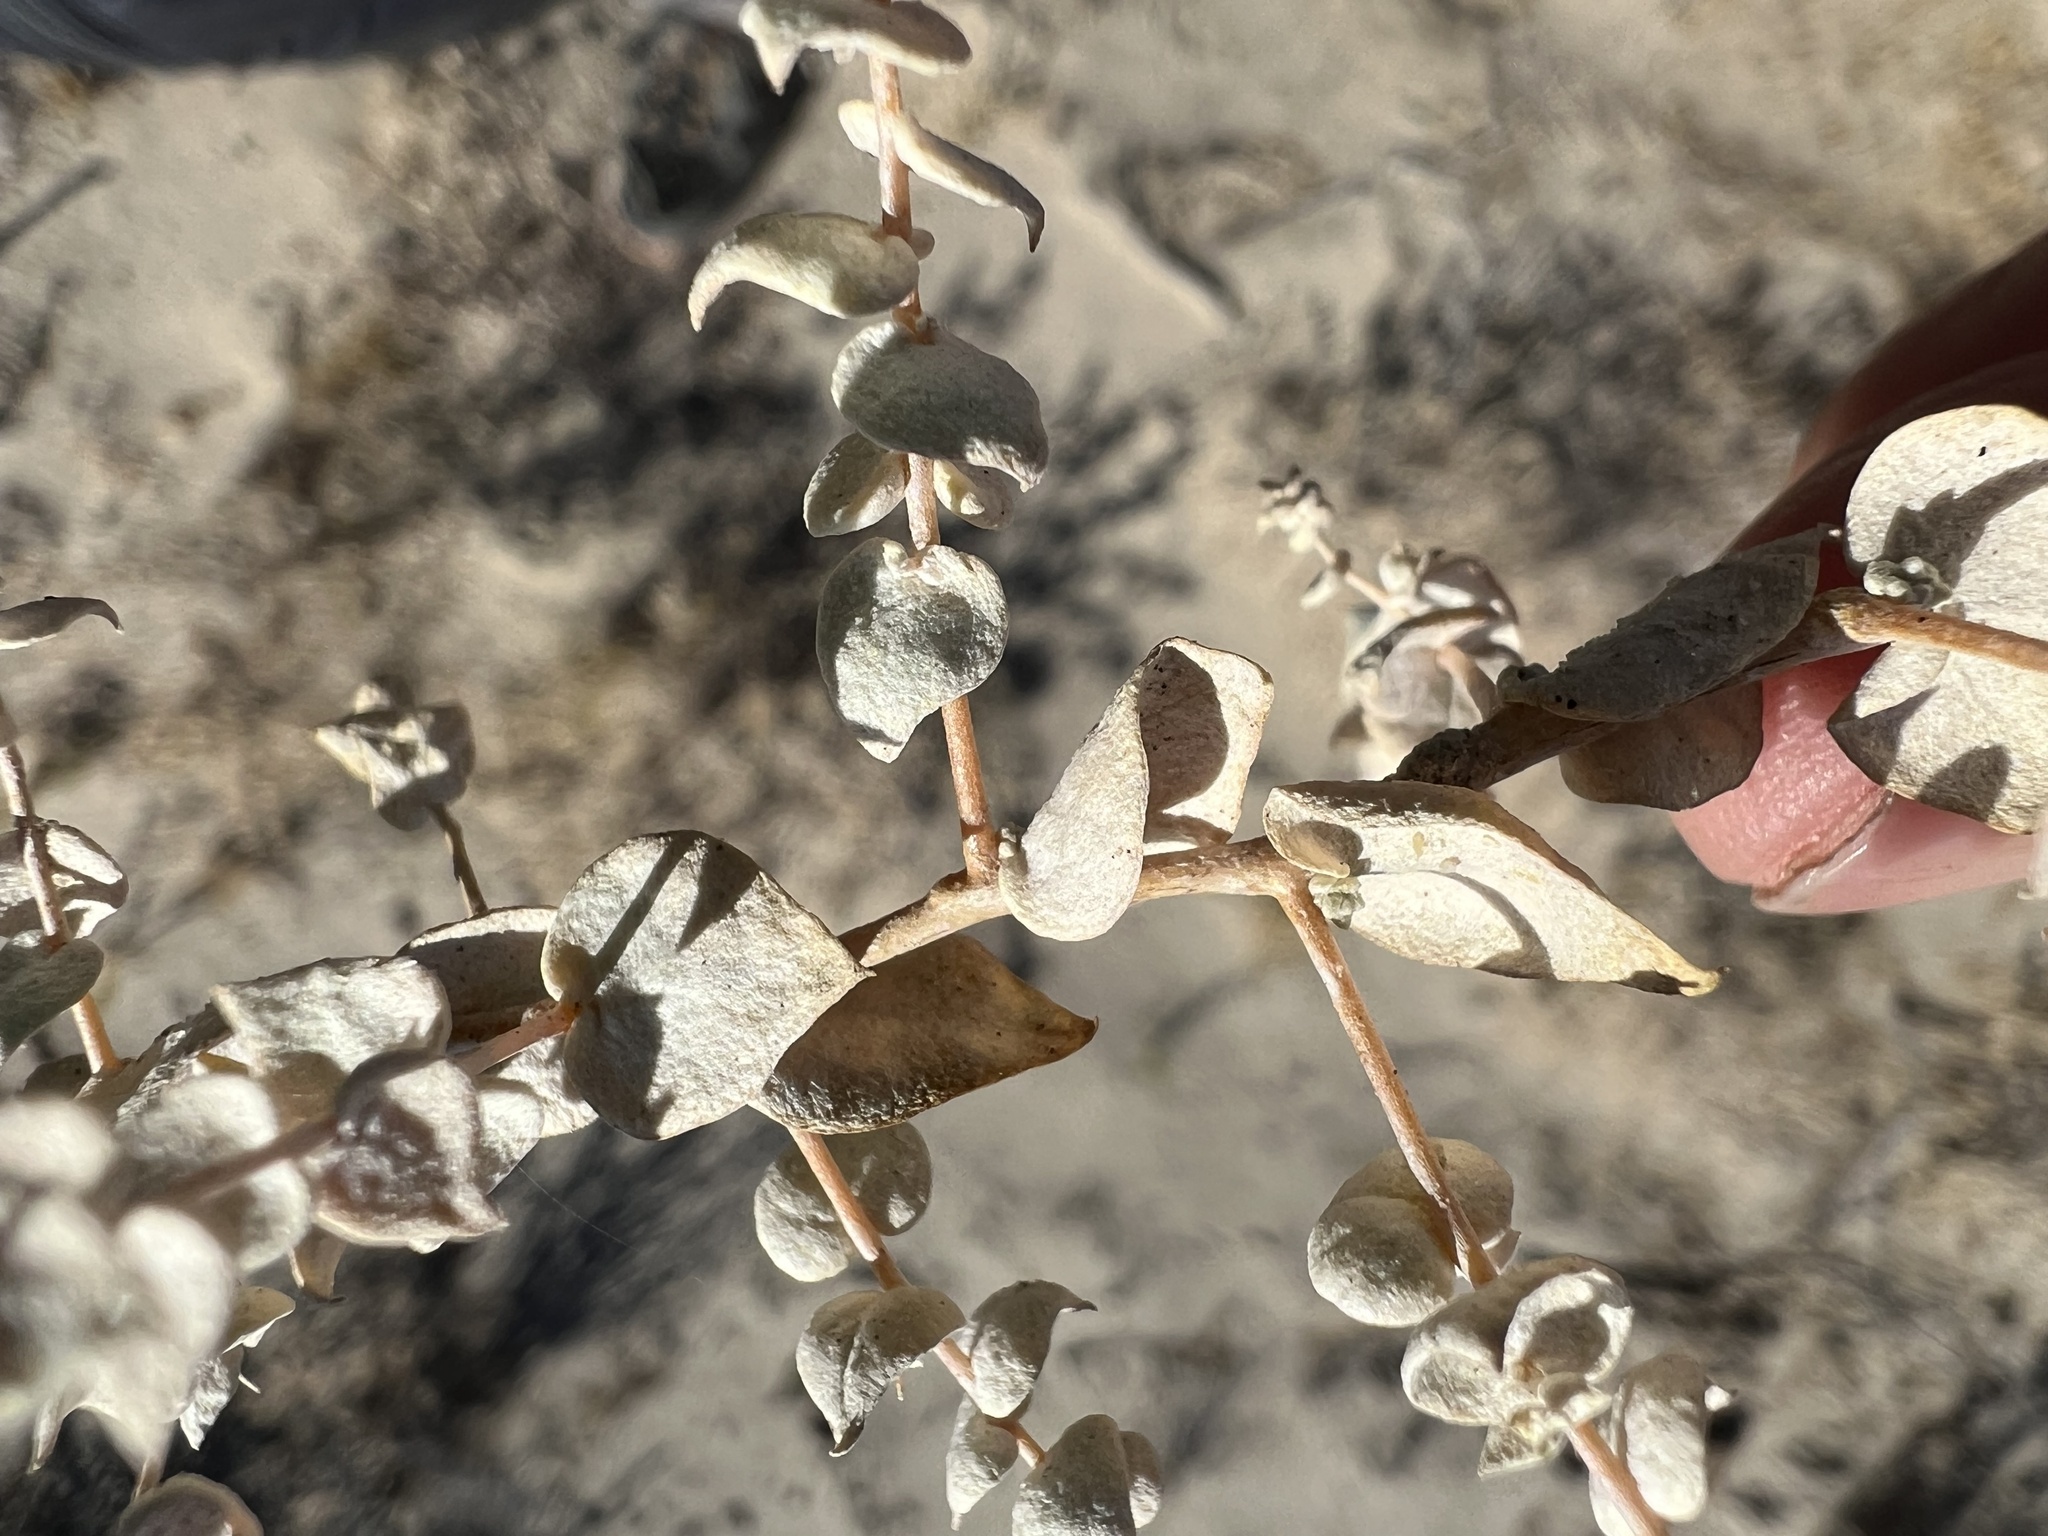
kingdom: Plantae
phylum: Tracheophyta
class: Magnoliopsida
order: Caryophyllales
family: Amaranthaceae
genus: Atriplex
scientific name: Atriplex parryi
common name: Parry's saltbush
